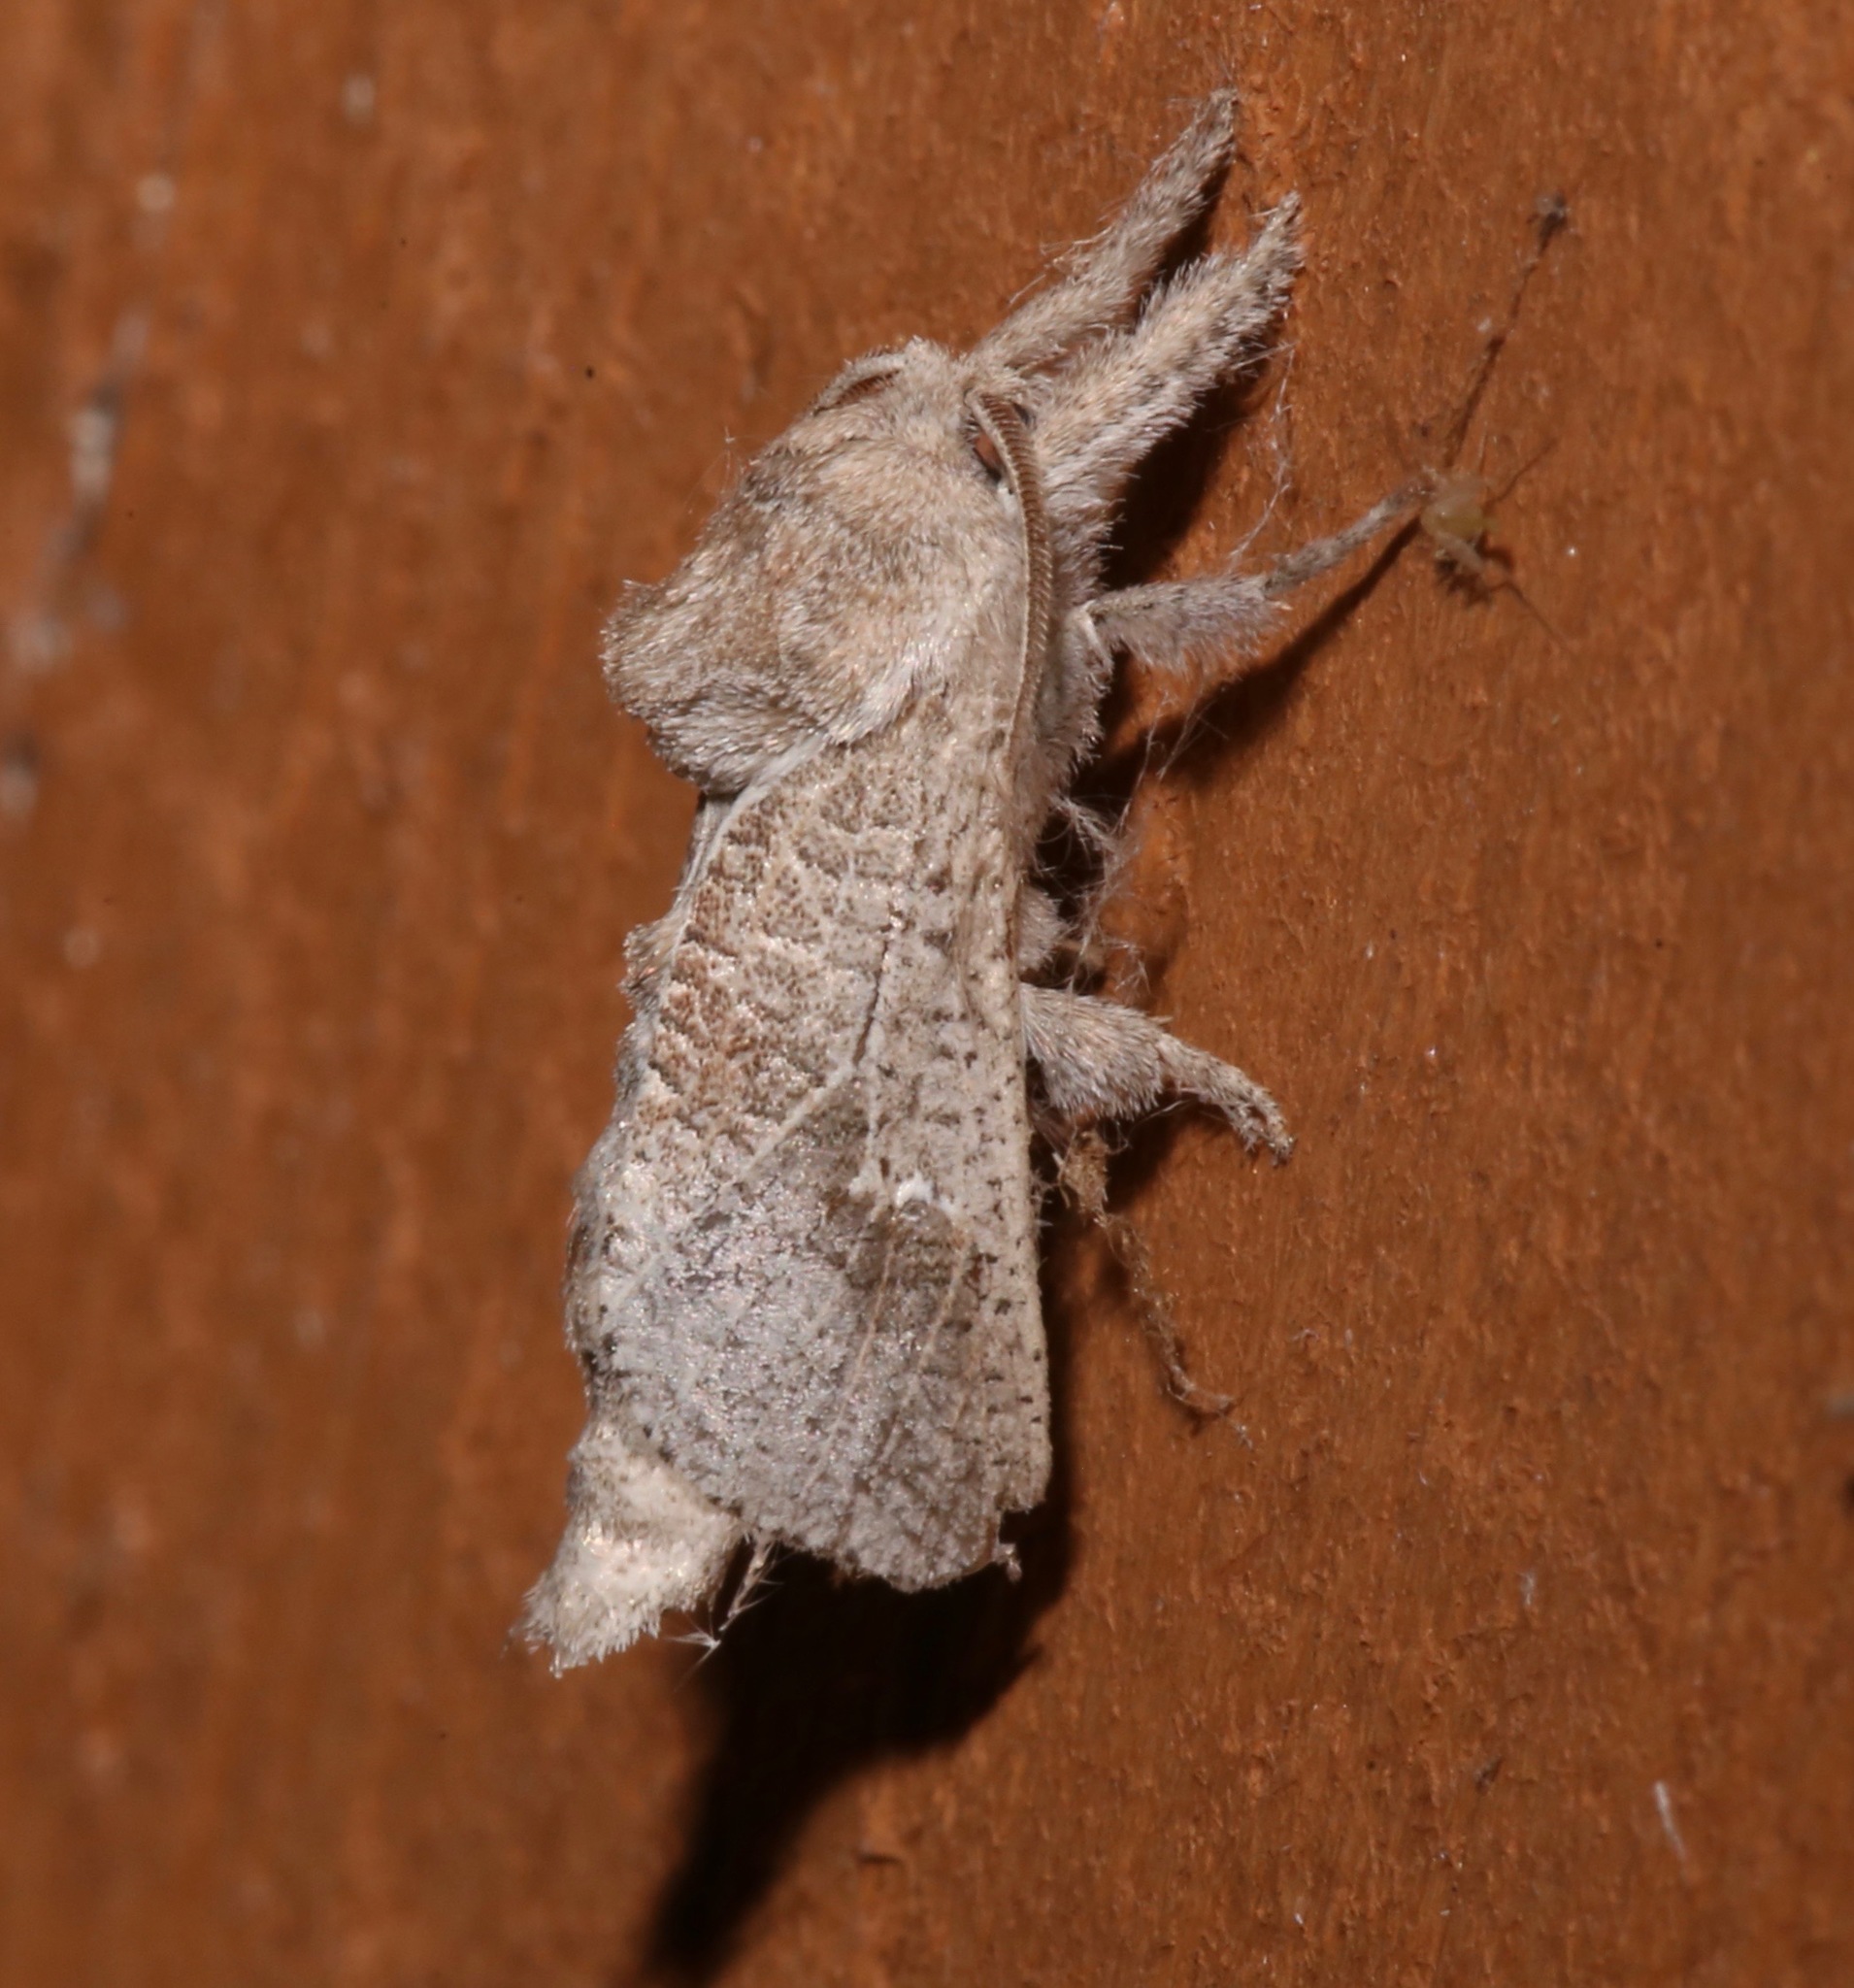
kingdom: Animalia
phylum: Arthropoda
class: Insecta
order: Lepidoptera
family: Cossidae
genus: Givira
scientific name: Givira anna
